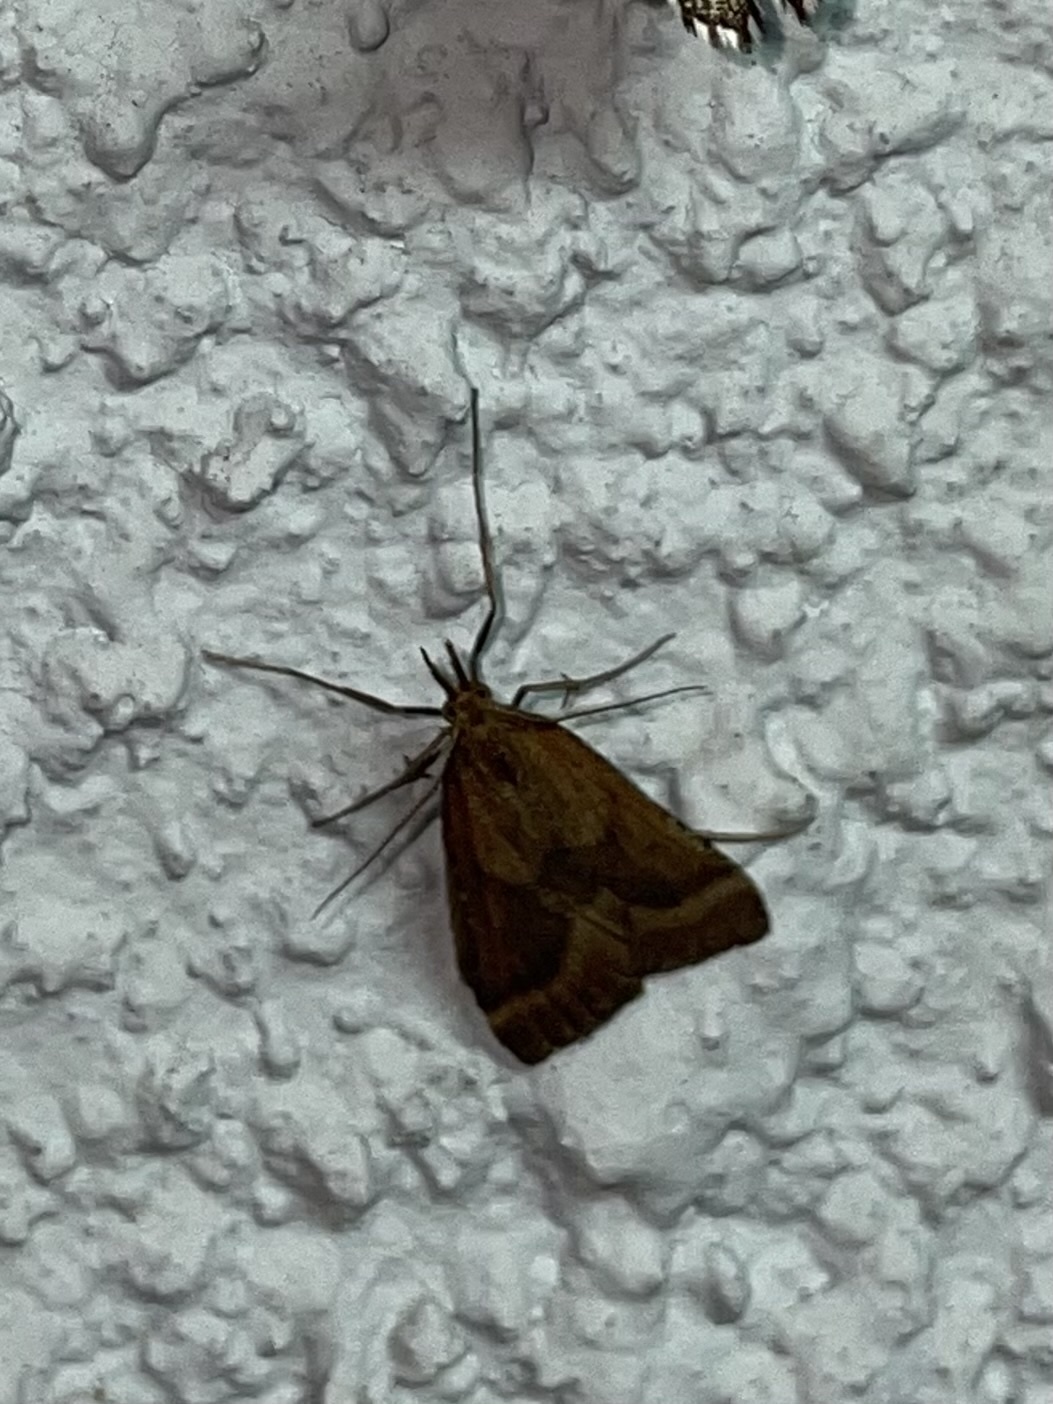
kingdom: Animalia
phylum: Arthropoda
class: Insecta
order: Lepidoptera
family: Pyralidae
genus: Synaphe
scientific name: Synaphe punctalis
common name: Long-legged tabby
